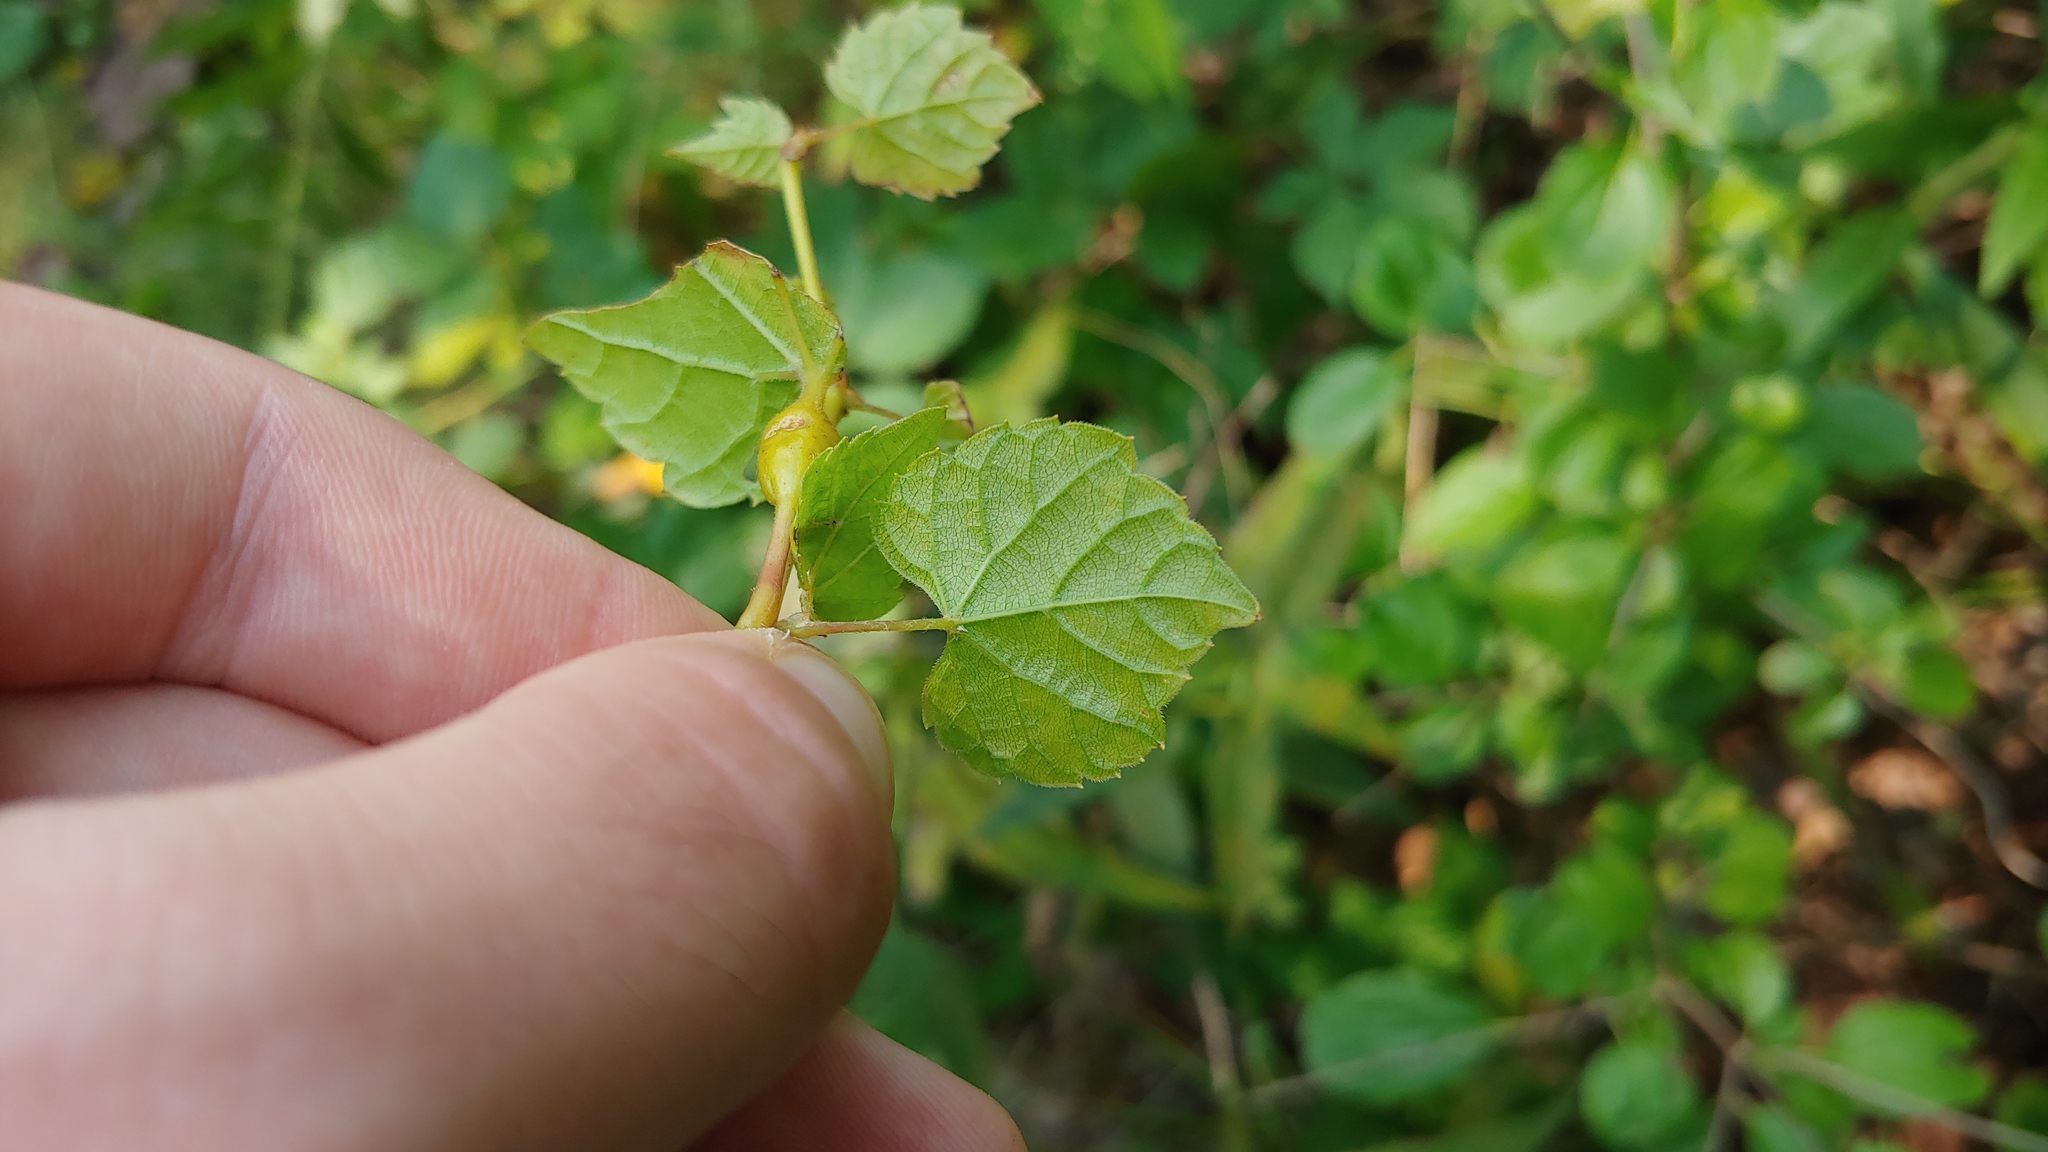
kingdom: Animalia
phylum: Arthropoda
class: Insecta
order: Diptera
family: Cecidomyiidae
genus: Neolasioptera
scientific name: Neolasioptera vitinea
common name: Grape leaf petiole gall
